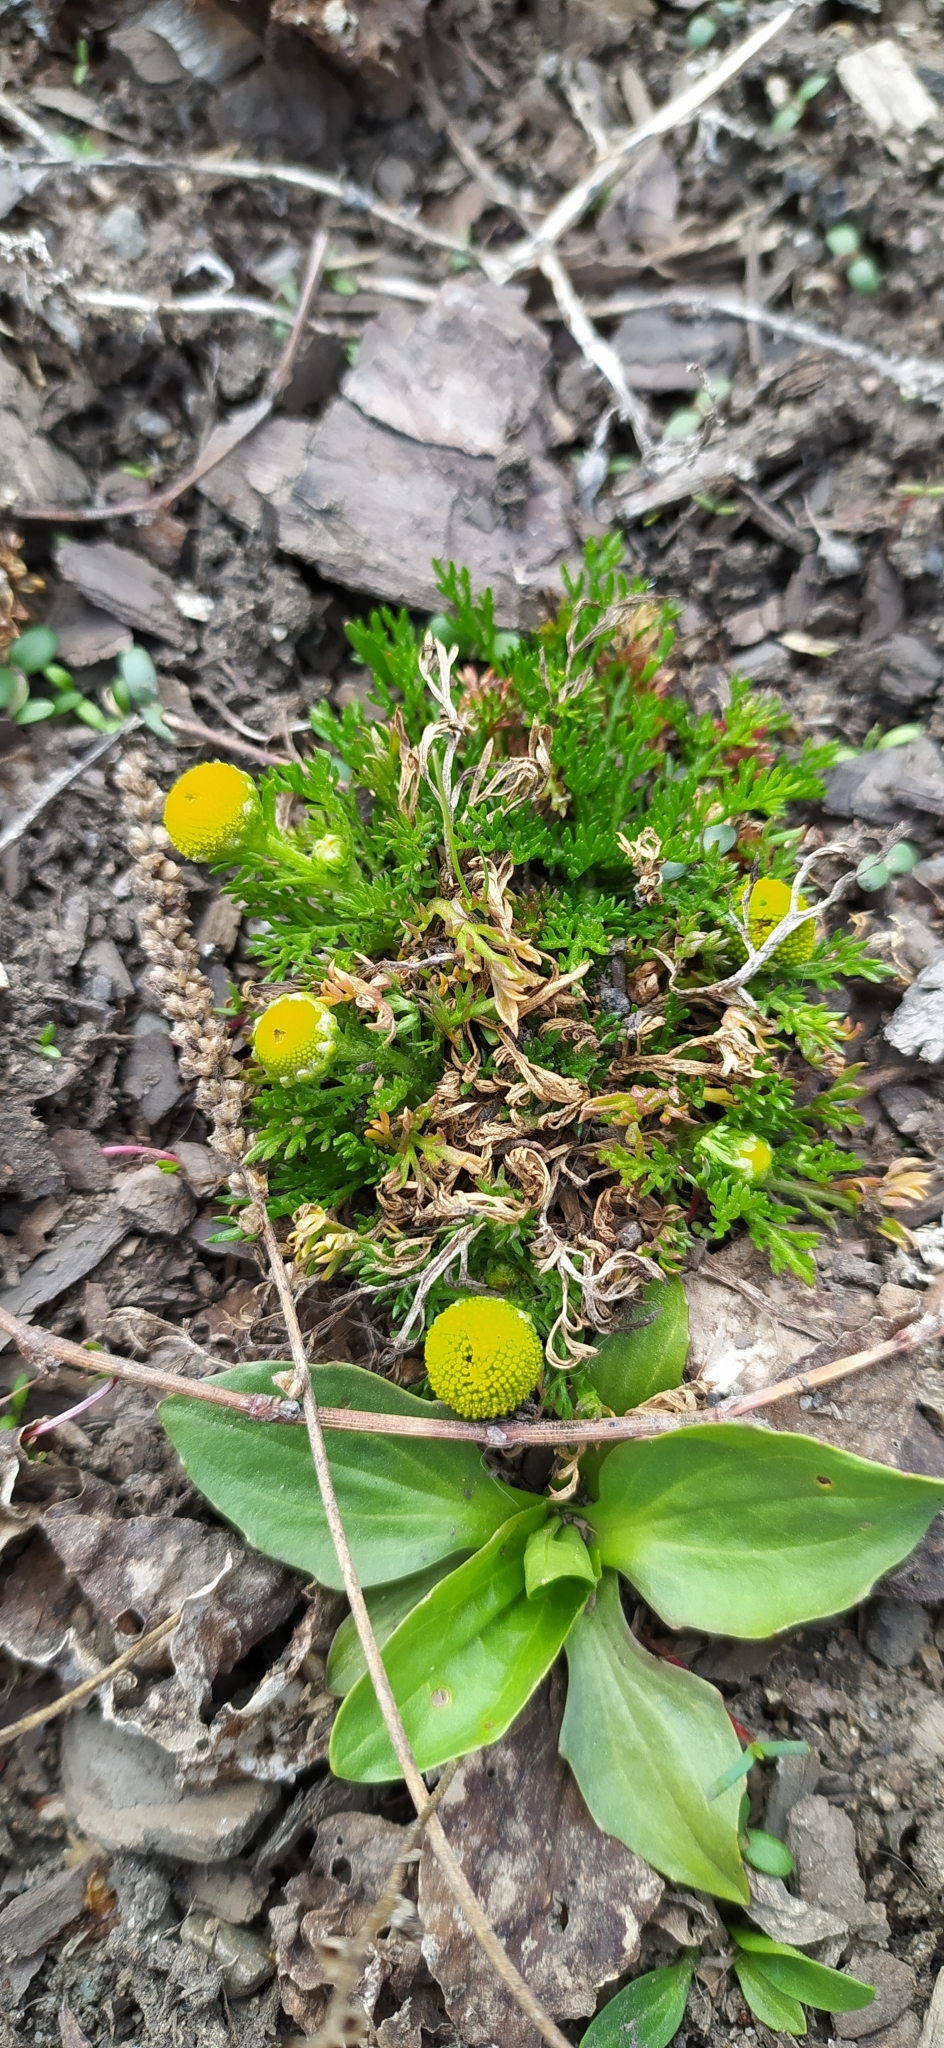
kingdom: Plantae
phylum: Tracheophyta
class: Magnoliopsida
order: Asterales
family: Asteraceae
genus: Matricaria
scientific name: Matricaria discoidea
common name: Disc mayweed
